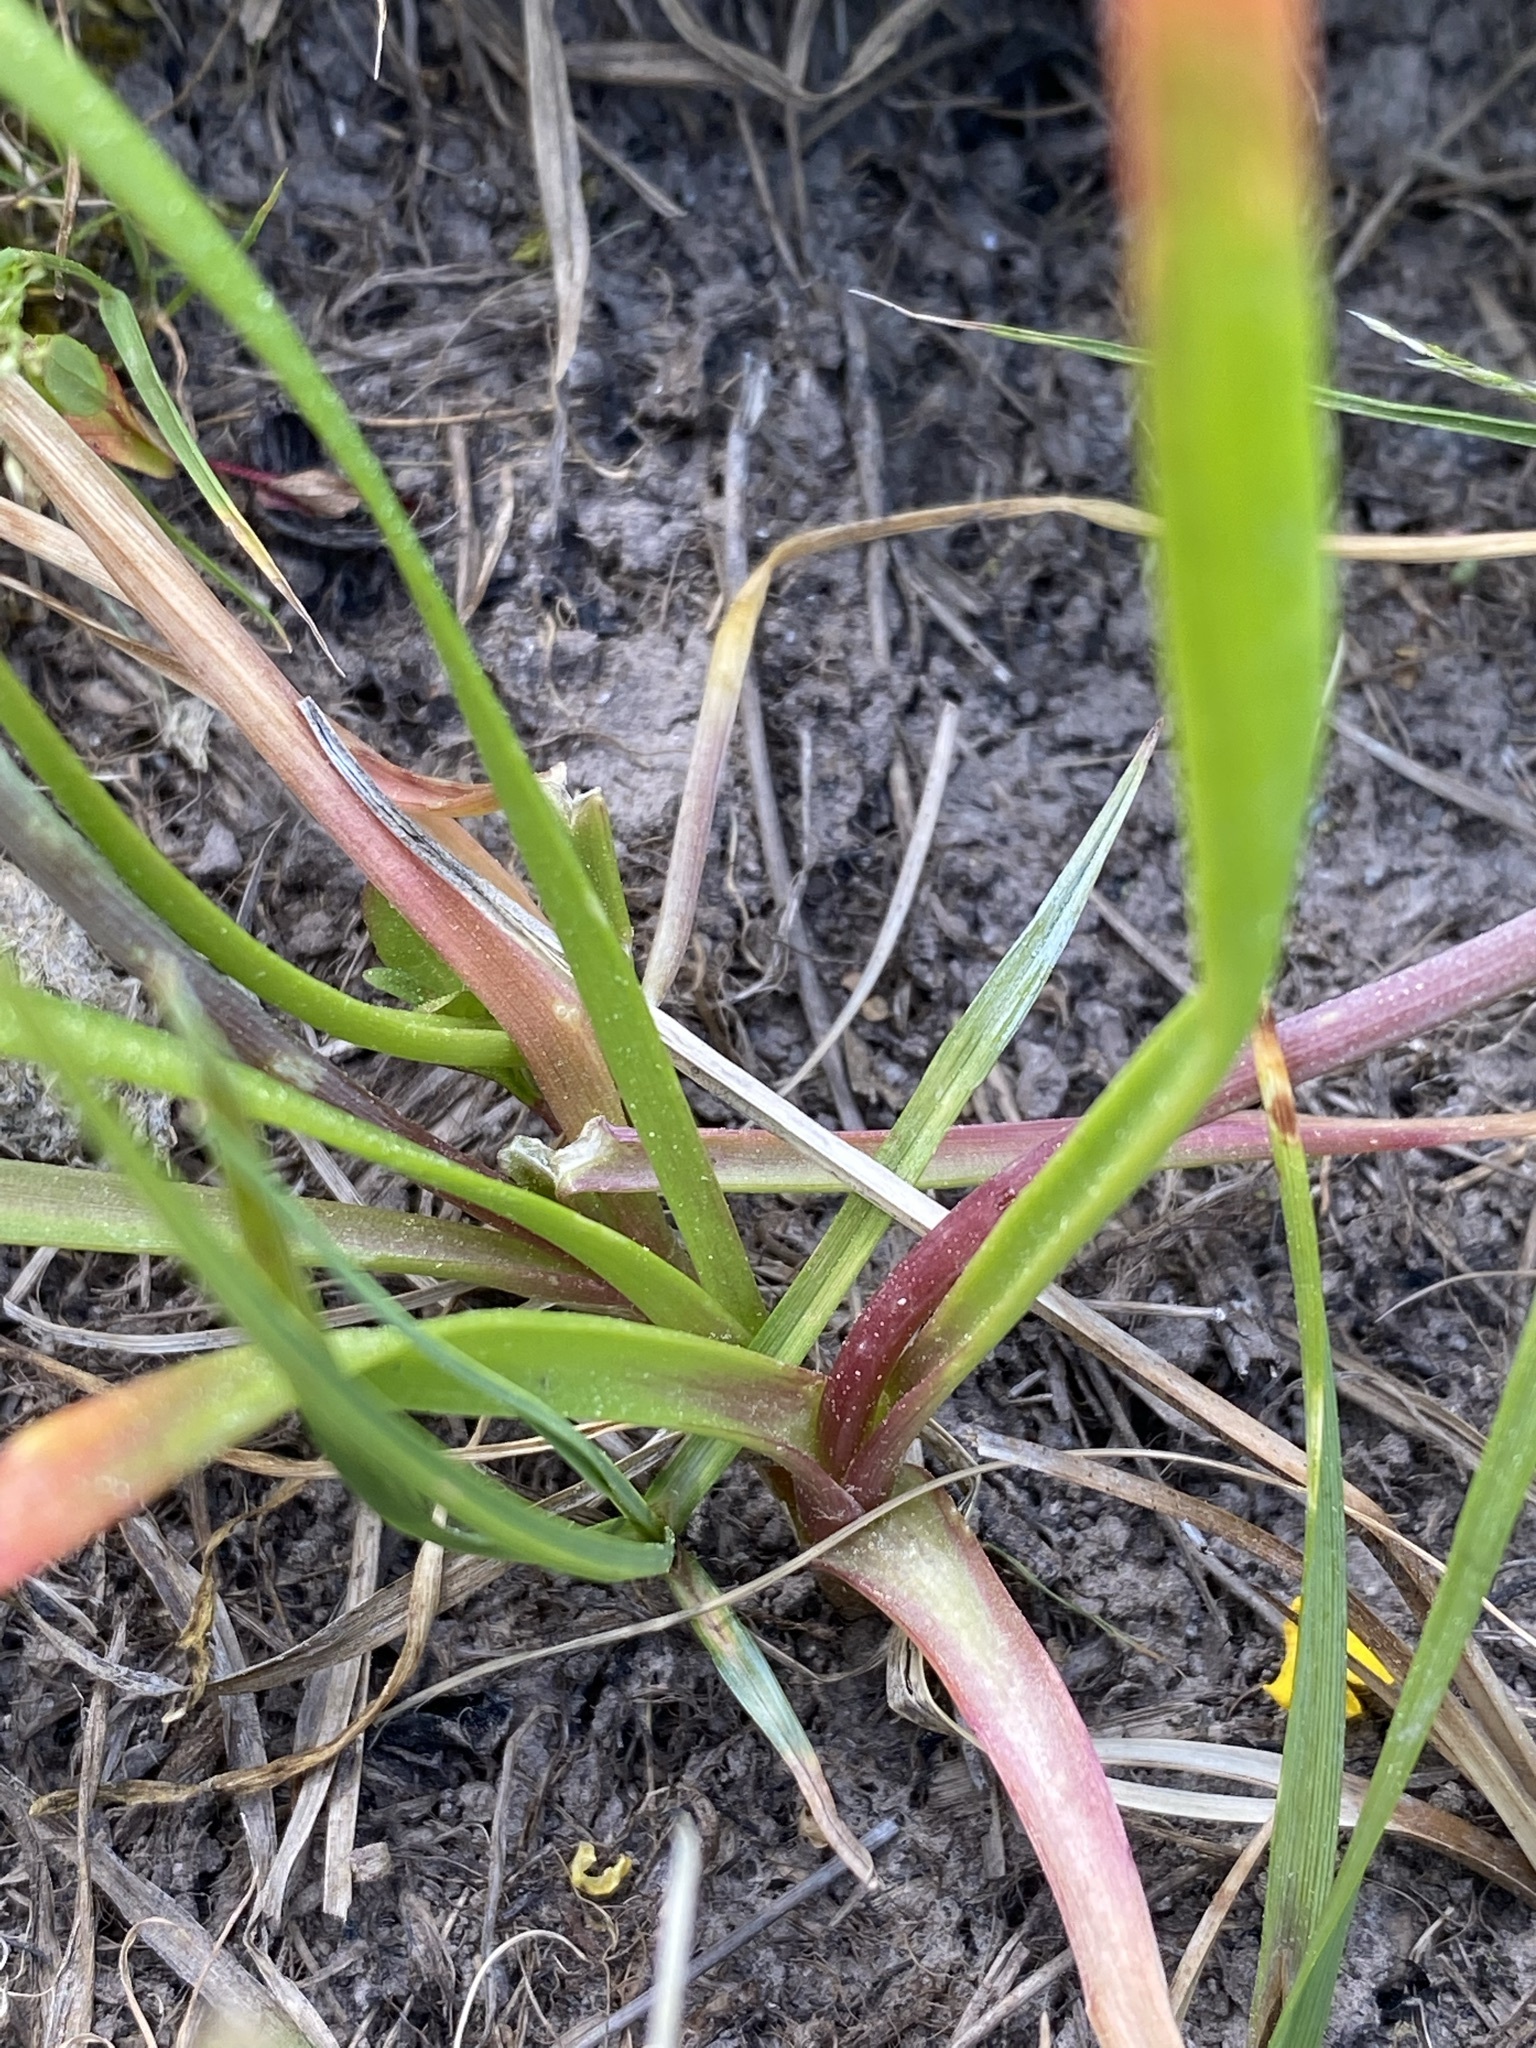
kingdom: Plantae
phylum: Tracheophyta
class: Liliopsida
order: Asparagales
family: Amaryllidaceae
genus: Allium
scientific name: Allium geyeri
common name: Geyer's onion
